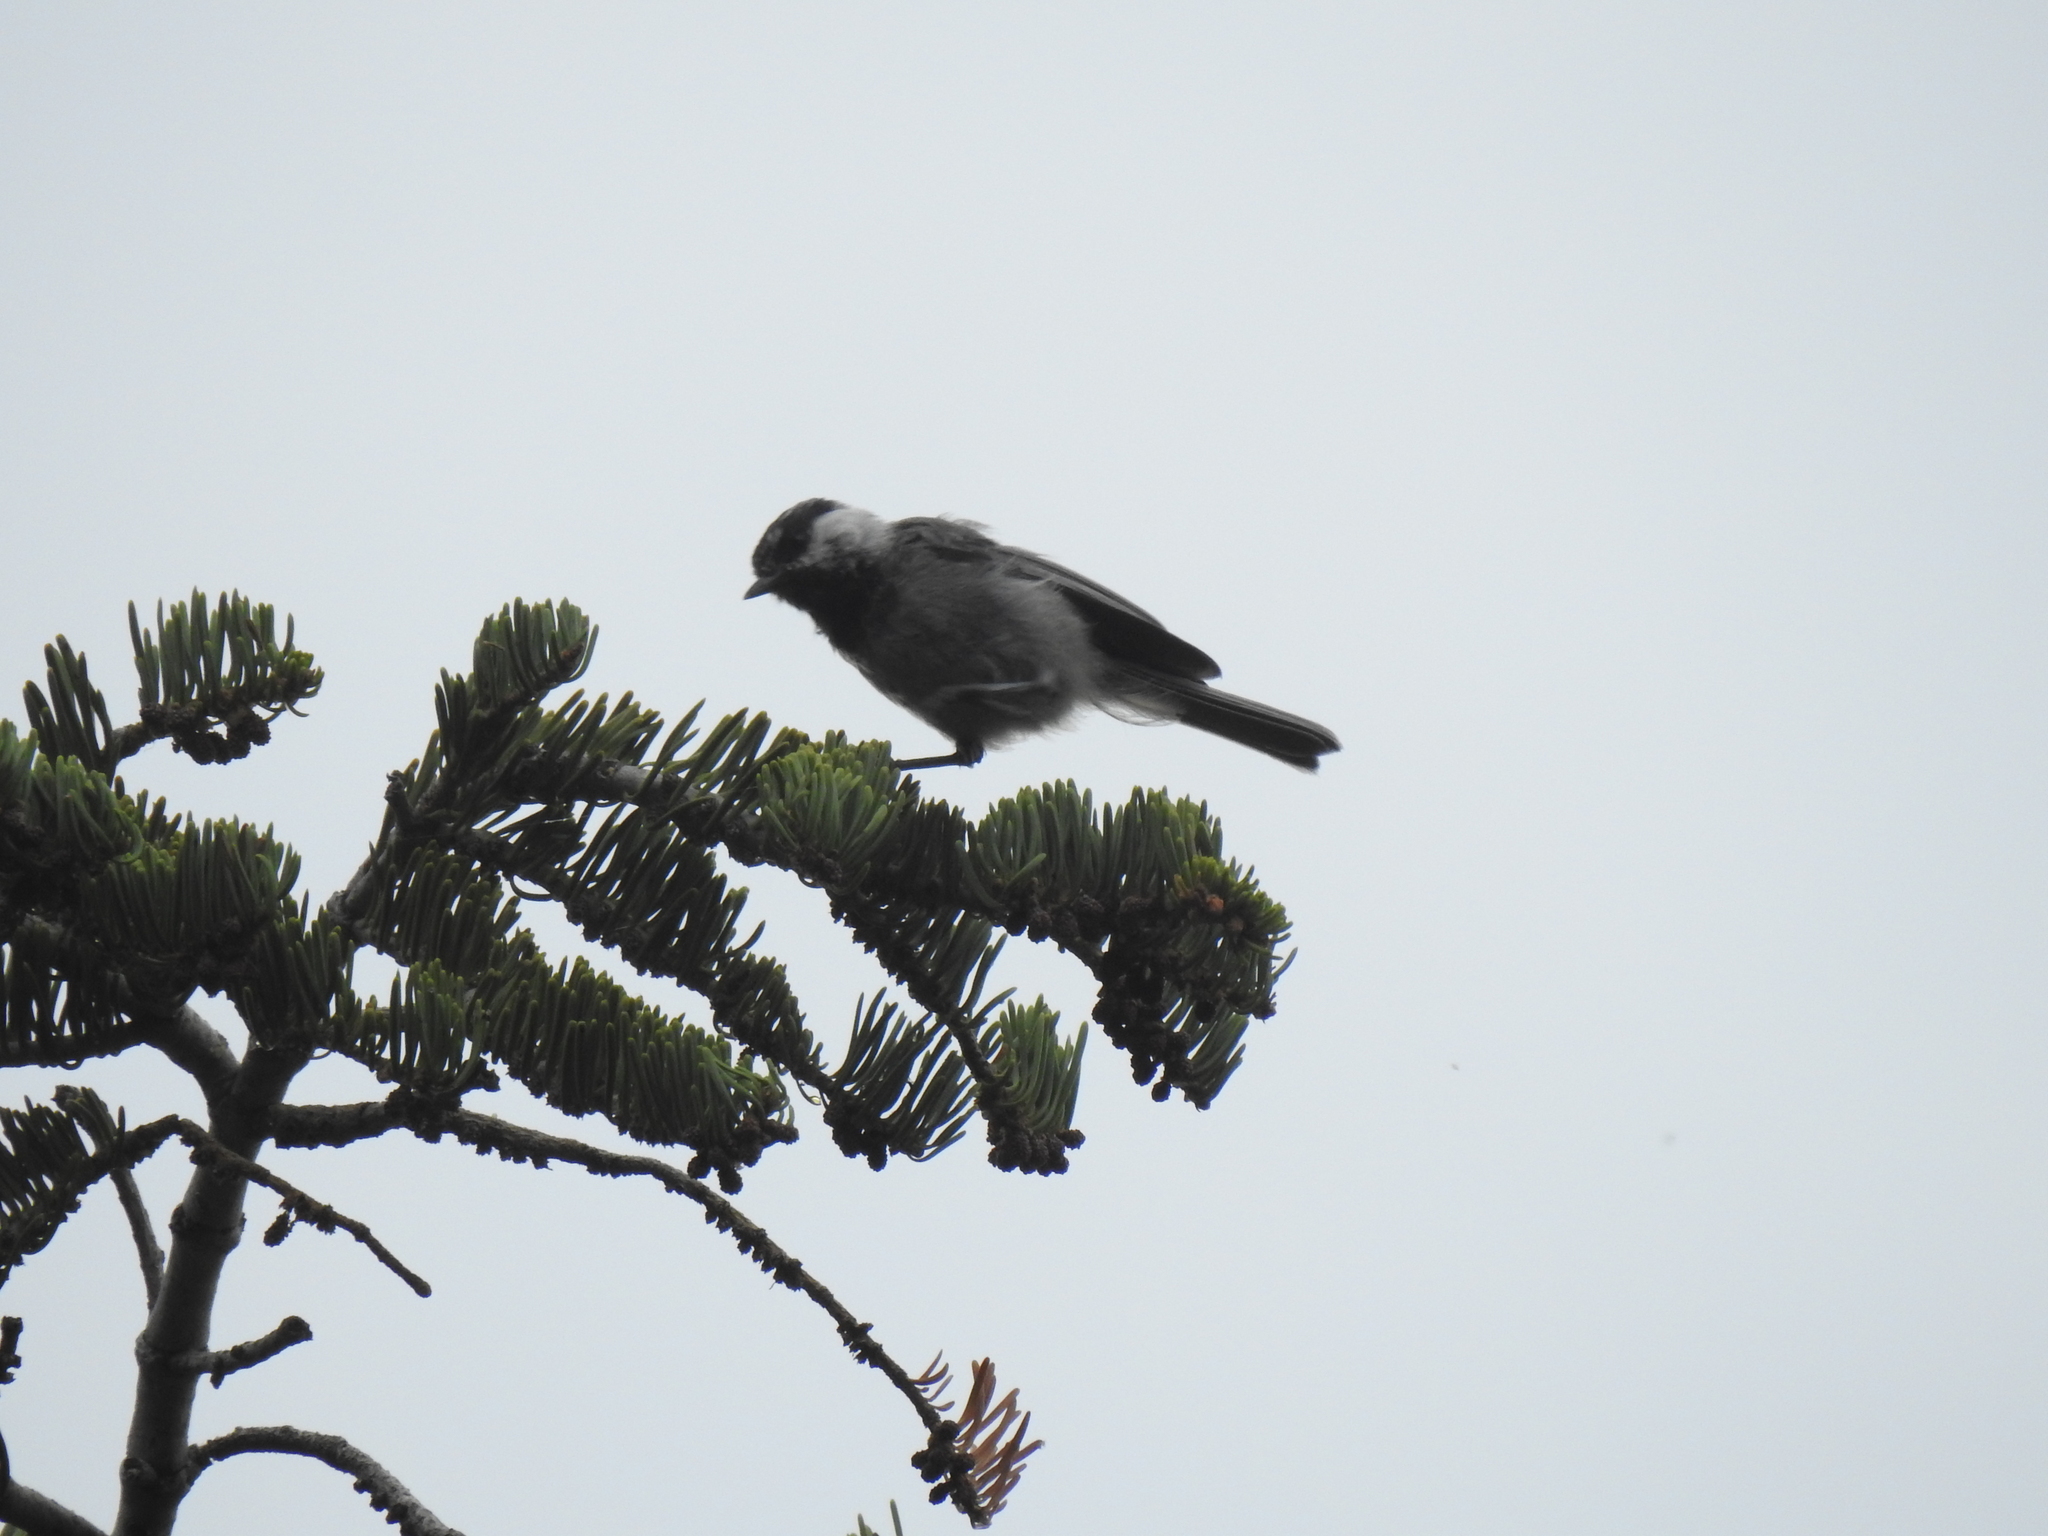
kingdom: Animalia
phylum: Chordata
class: Aves
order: Passeriformes
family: Paridae
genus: Poecile
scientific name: Poecile gambeli
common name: Mountain chickadee
